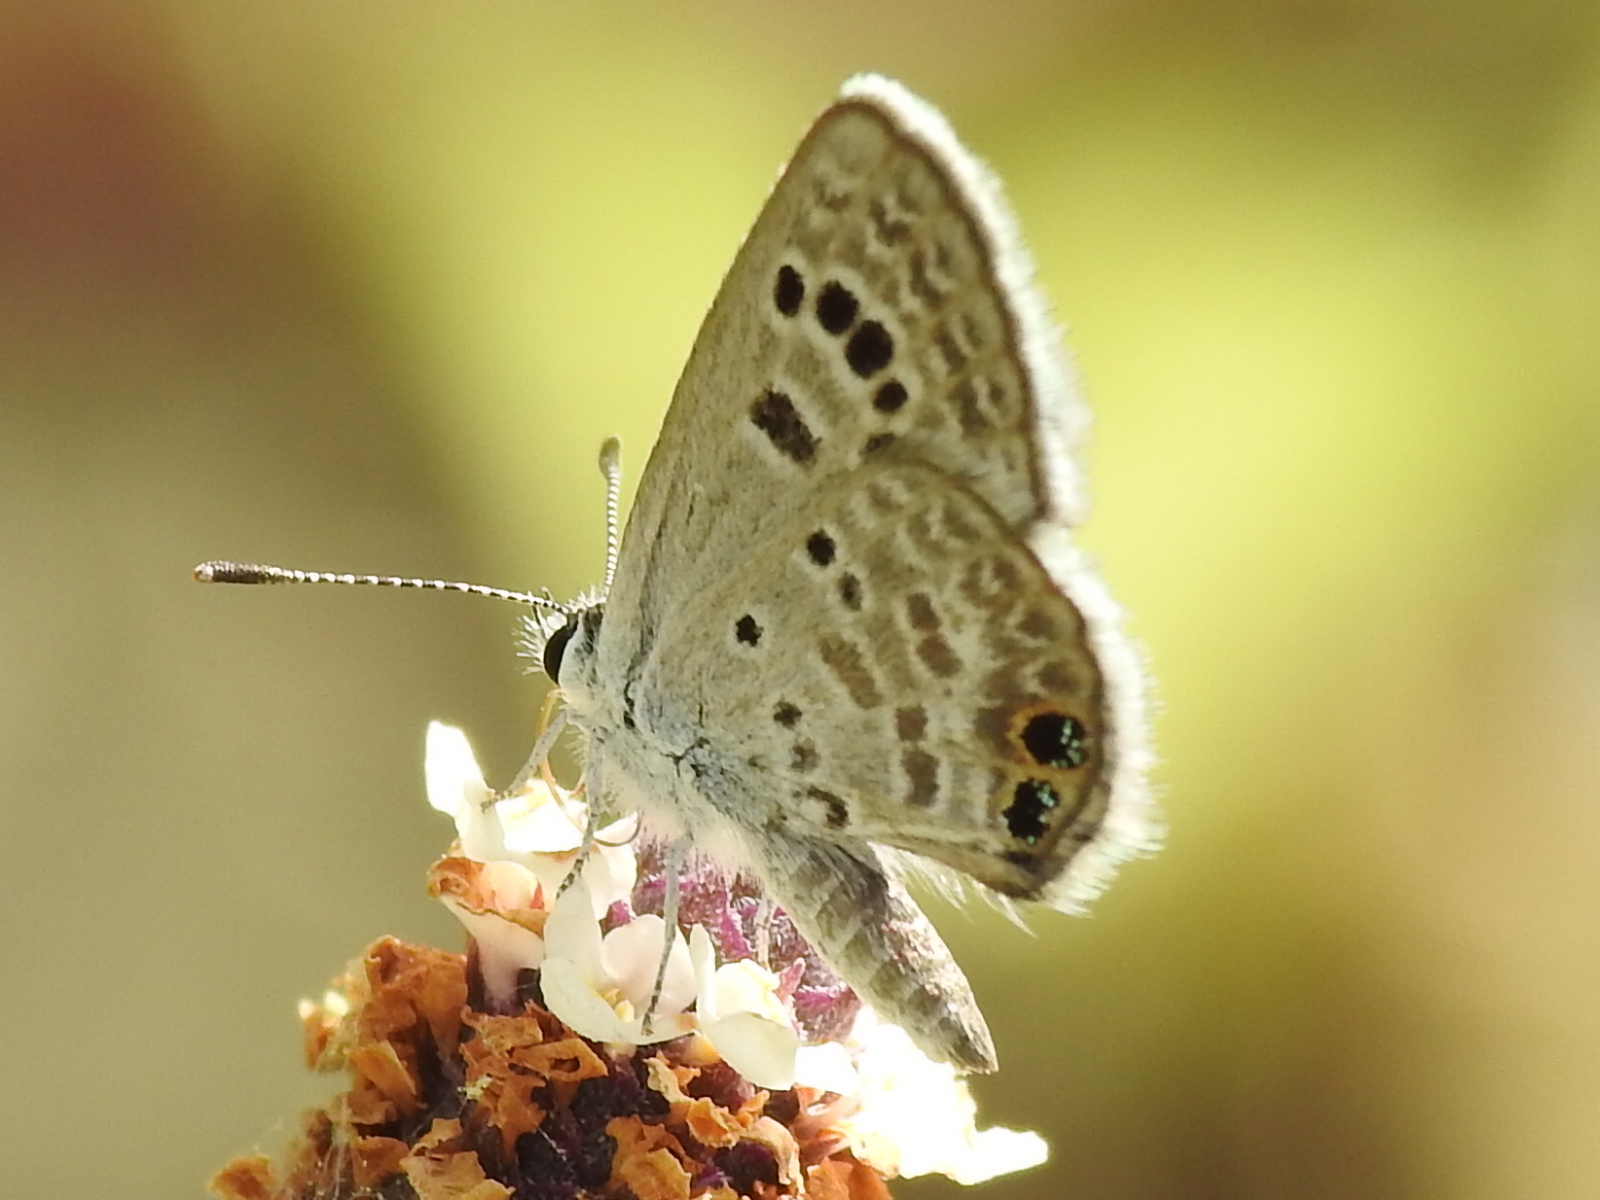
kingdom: Animalia
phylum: Arthropoda
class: Insecta
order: Lepidoptera
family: Lycaenidae
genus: Echinargus
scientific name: Echinargus isola
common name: Reakirt's blue
